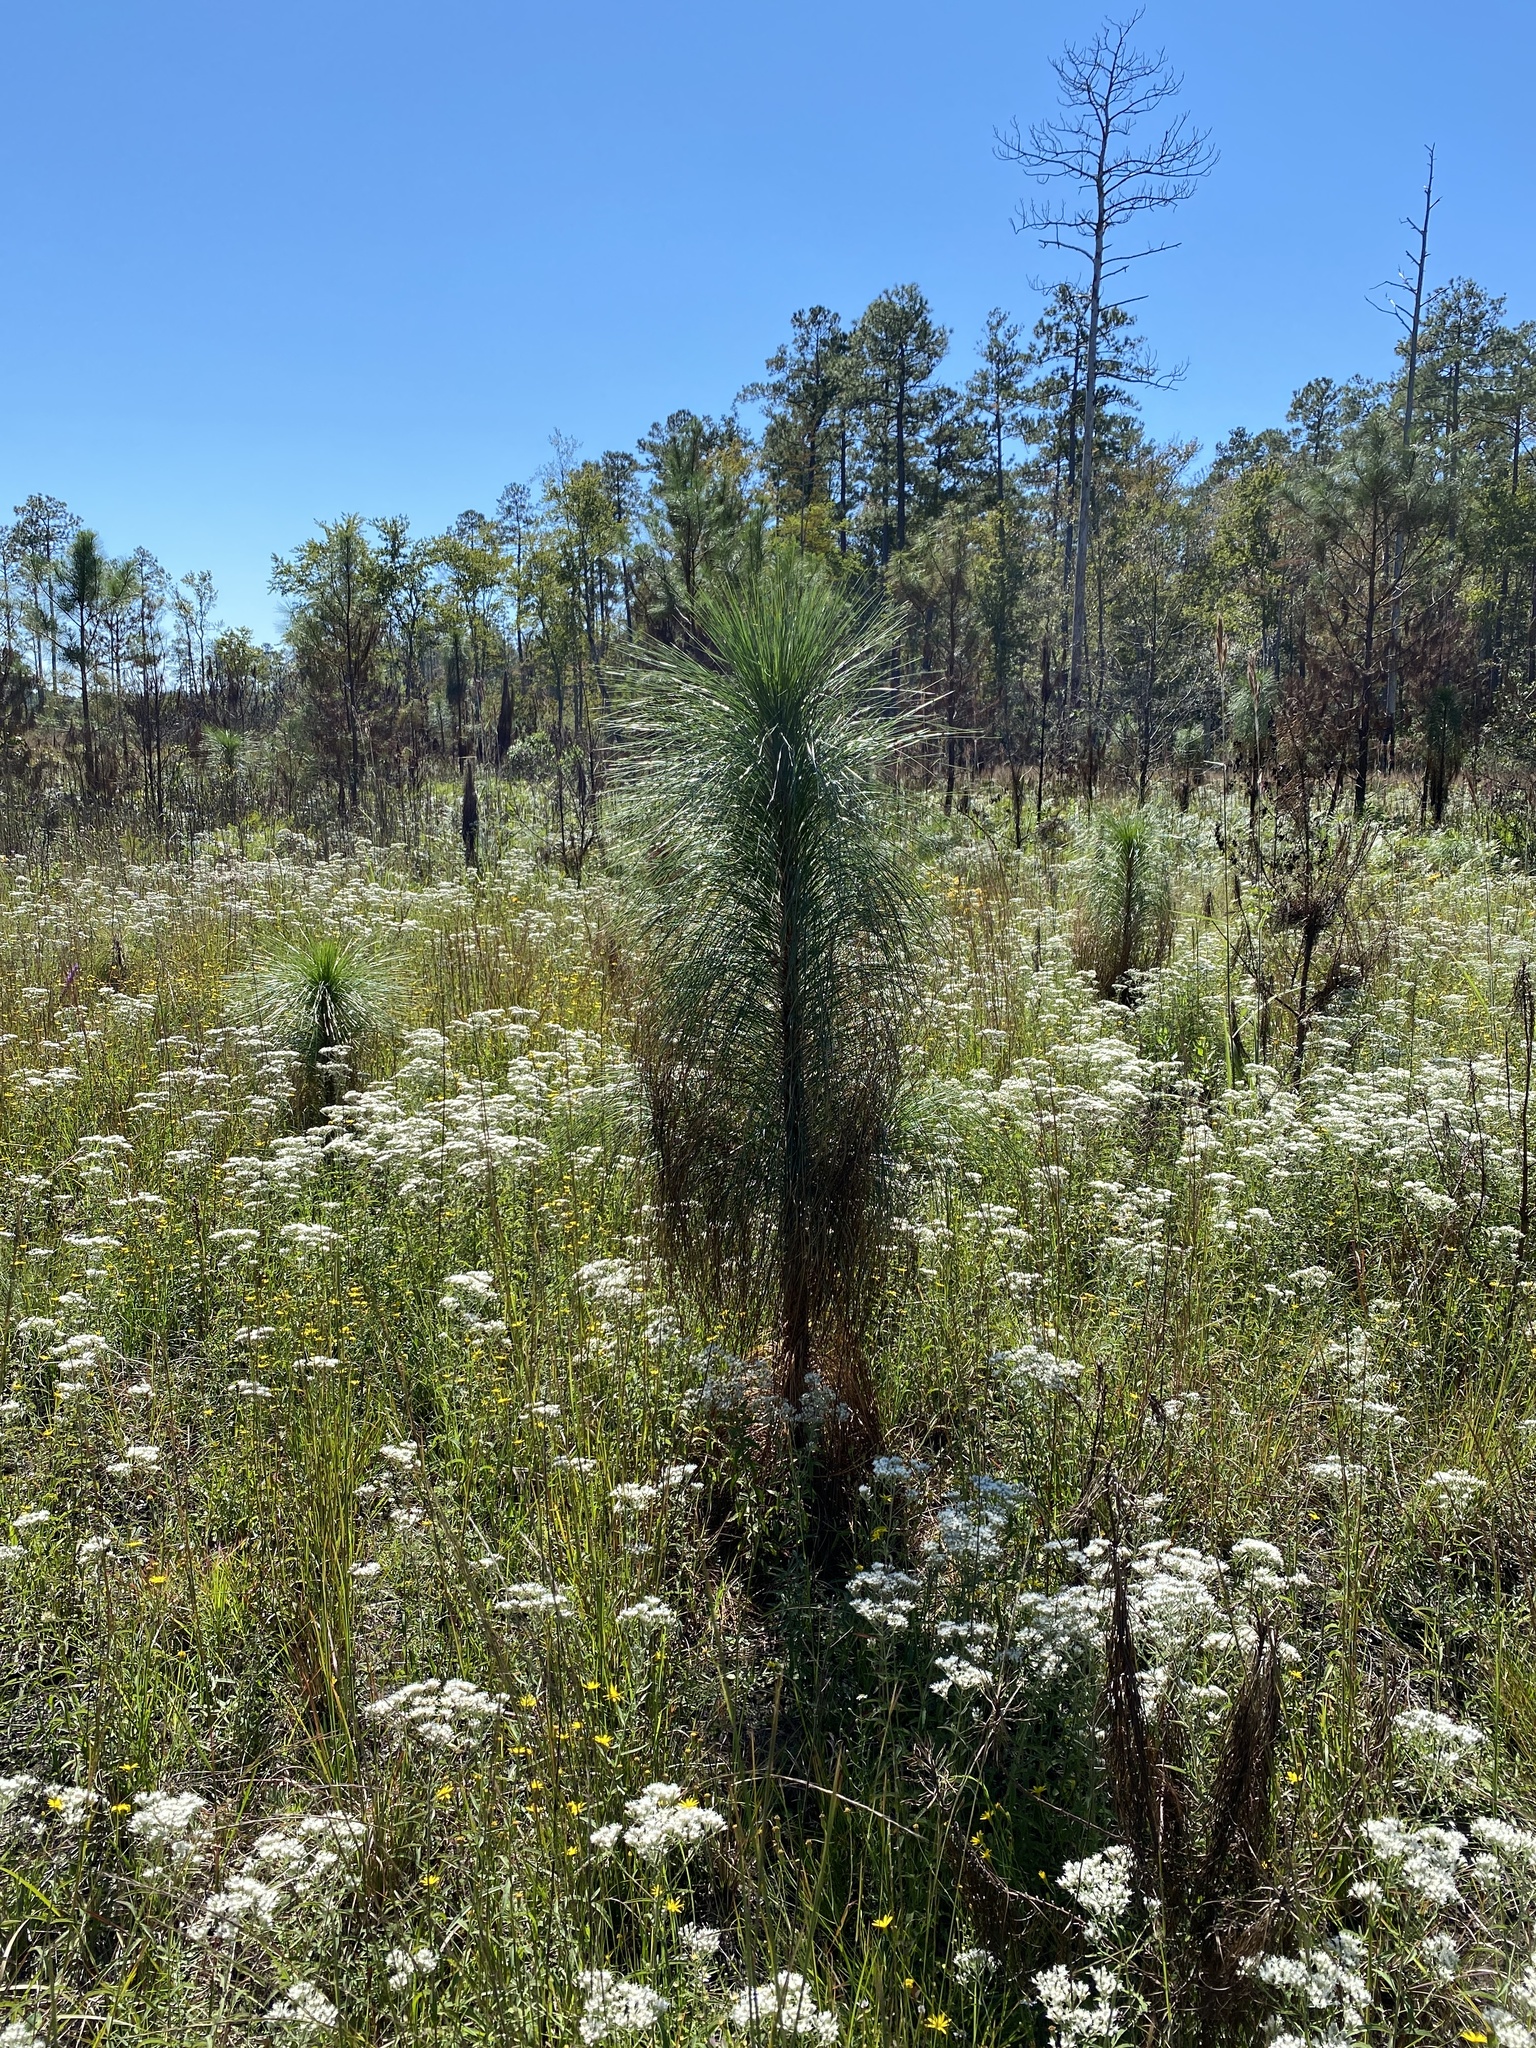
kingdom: Plantae
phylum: Tracheophyta
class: Pinopsida
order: Pinales
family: Pinaceae
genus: Pinus
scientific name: Pinus palustris
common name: Longleaf pine
